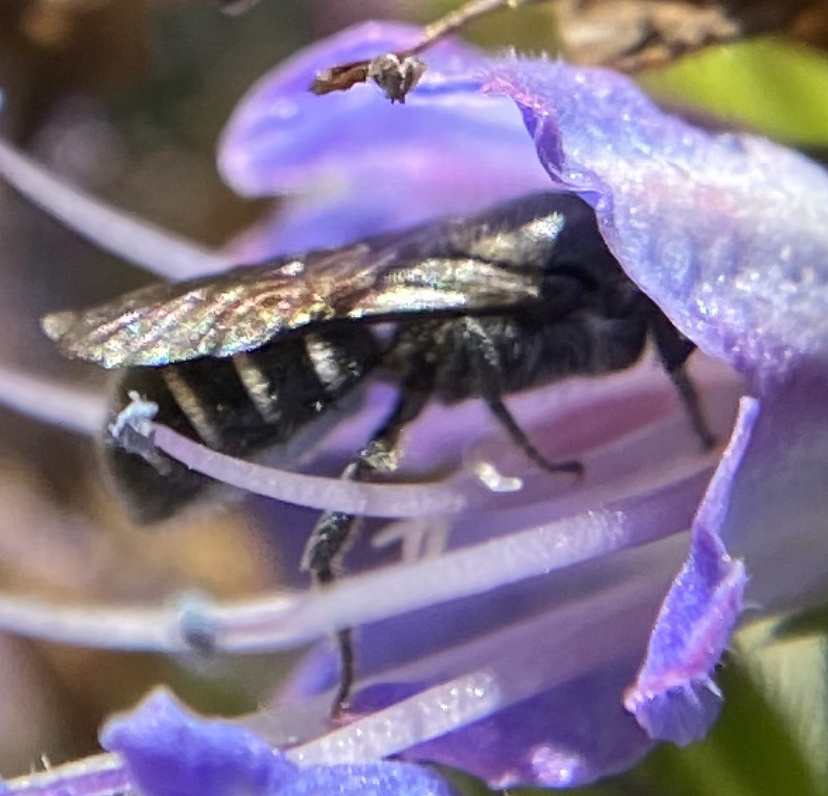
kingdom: Animalia
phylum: Arthropoda
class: Insecta
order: Hymenoptera
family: Megachilidae
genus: Protosmia
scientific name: Protosmia rubifloris
